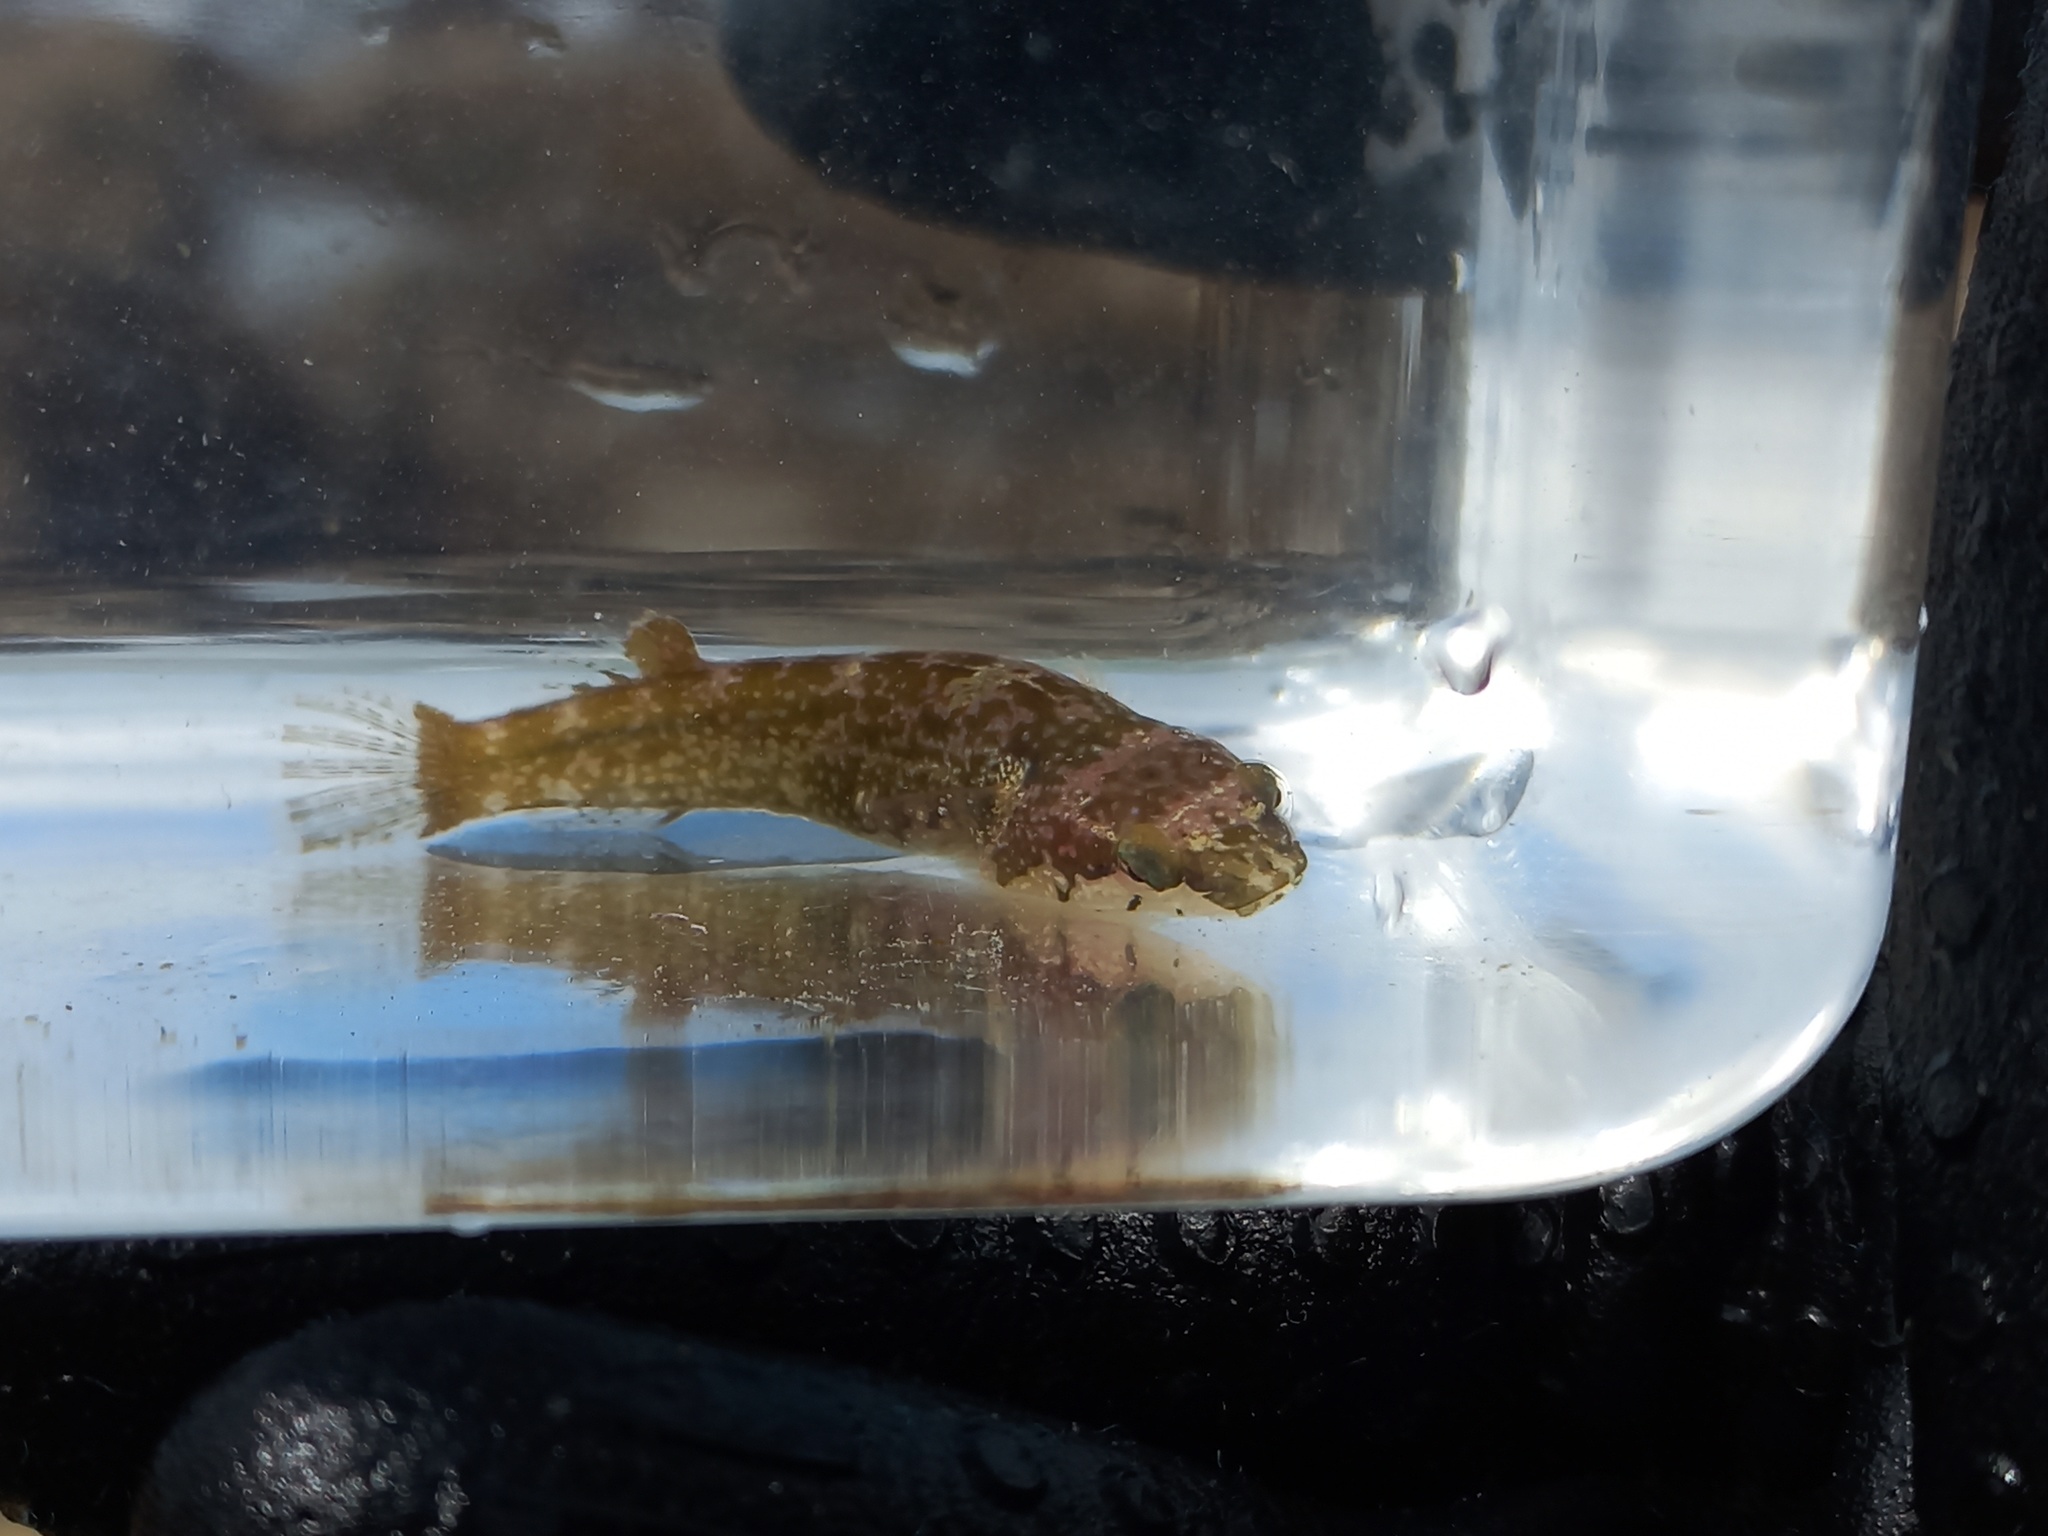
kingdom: Animalia
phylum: Chordata
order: Gobiesociformes
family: Gobiesocidae
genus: Apletodon
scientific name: Apletodon dentatus
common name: Small-headed clingfish
